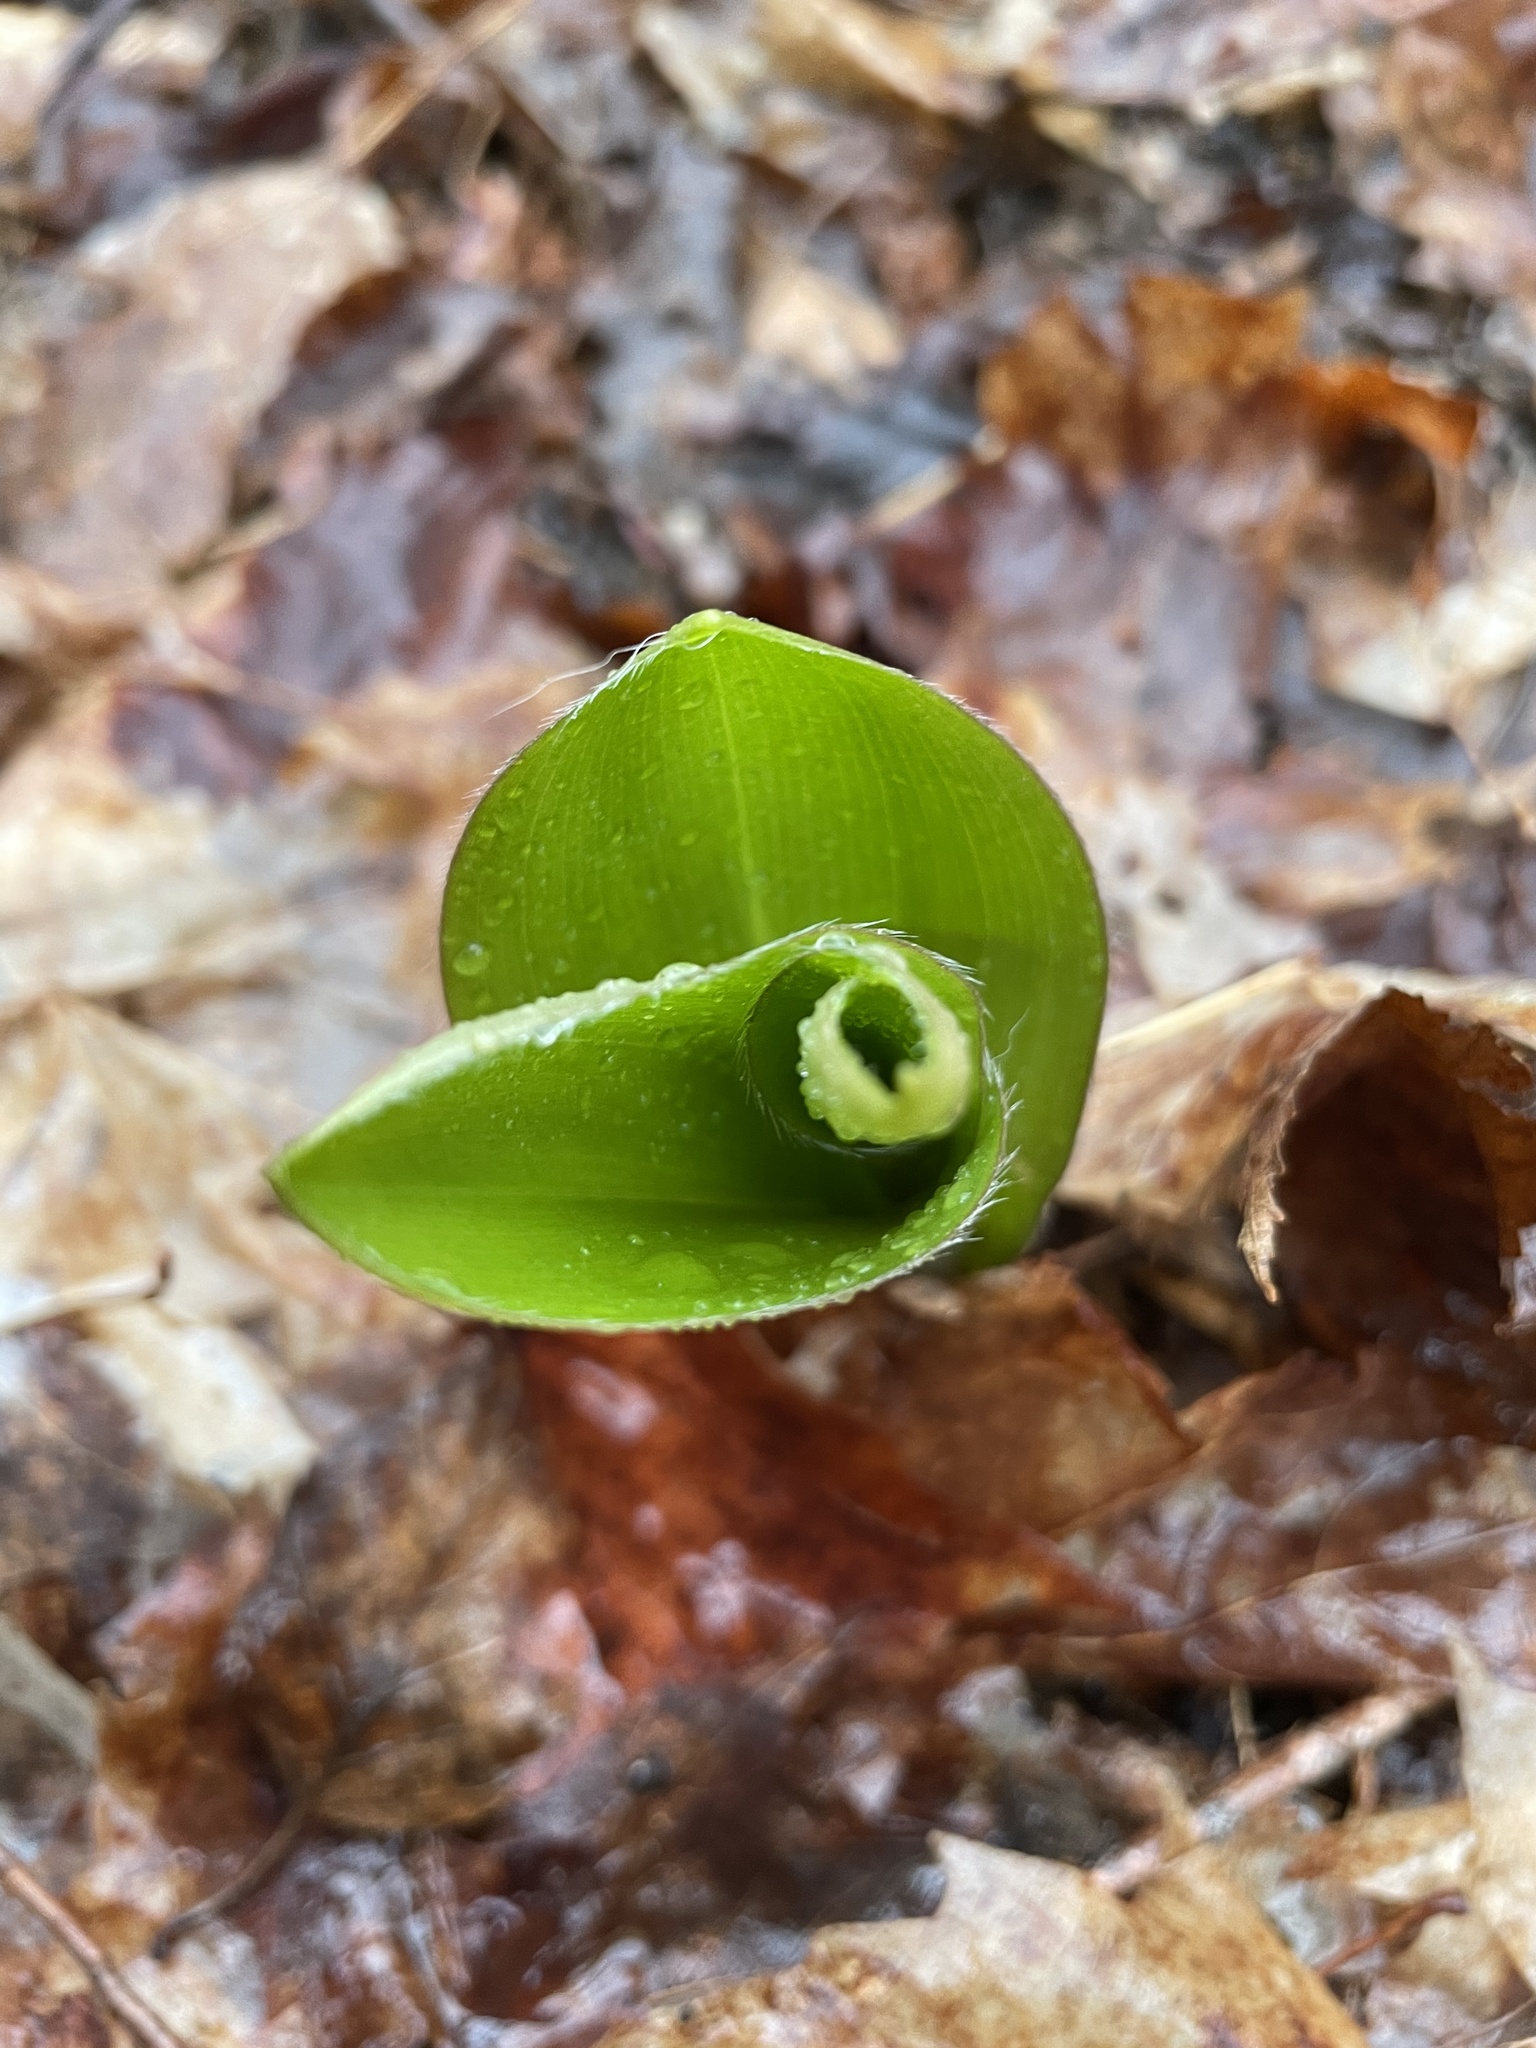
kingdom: Plantae
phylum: Tracheophyta
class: Liliopsida
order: Liliales
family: Liliaceae
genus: Clintonia
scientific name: Clintonia borealis
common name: Yellow clintonia
